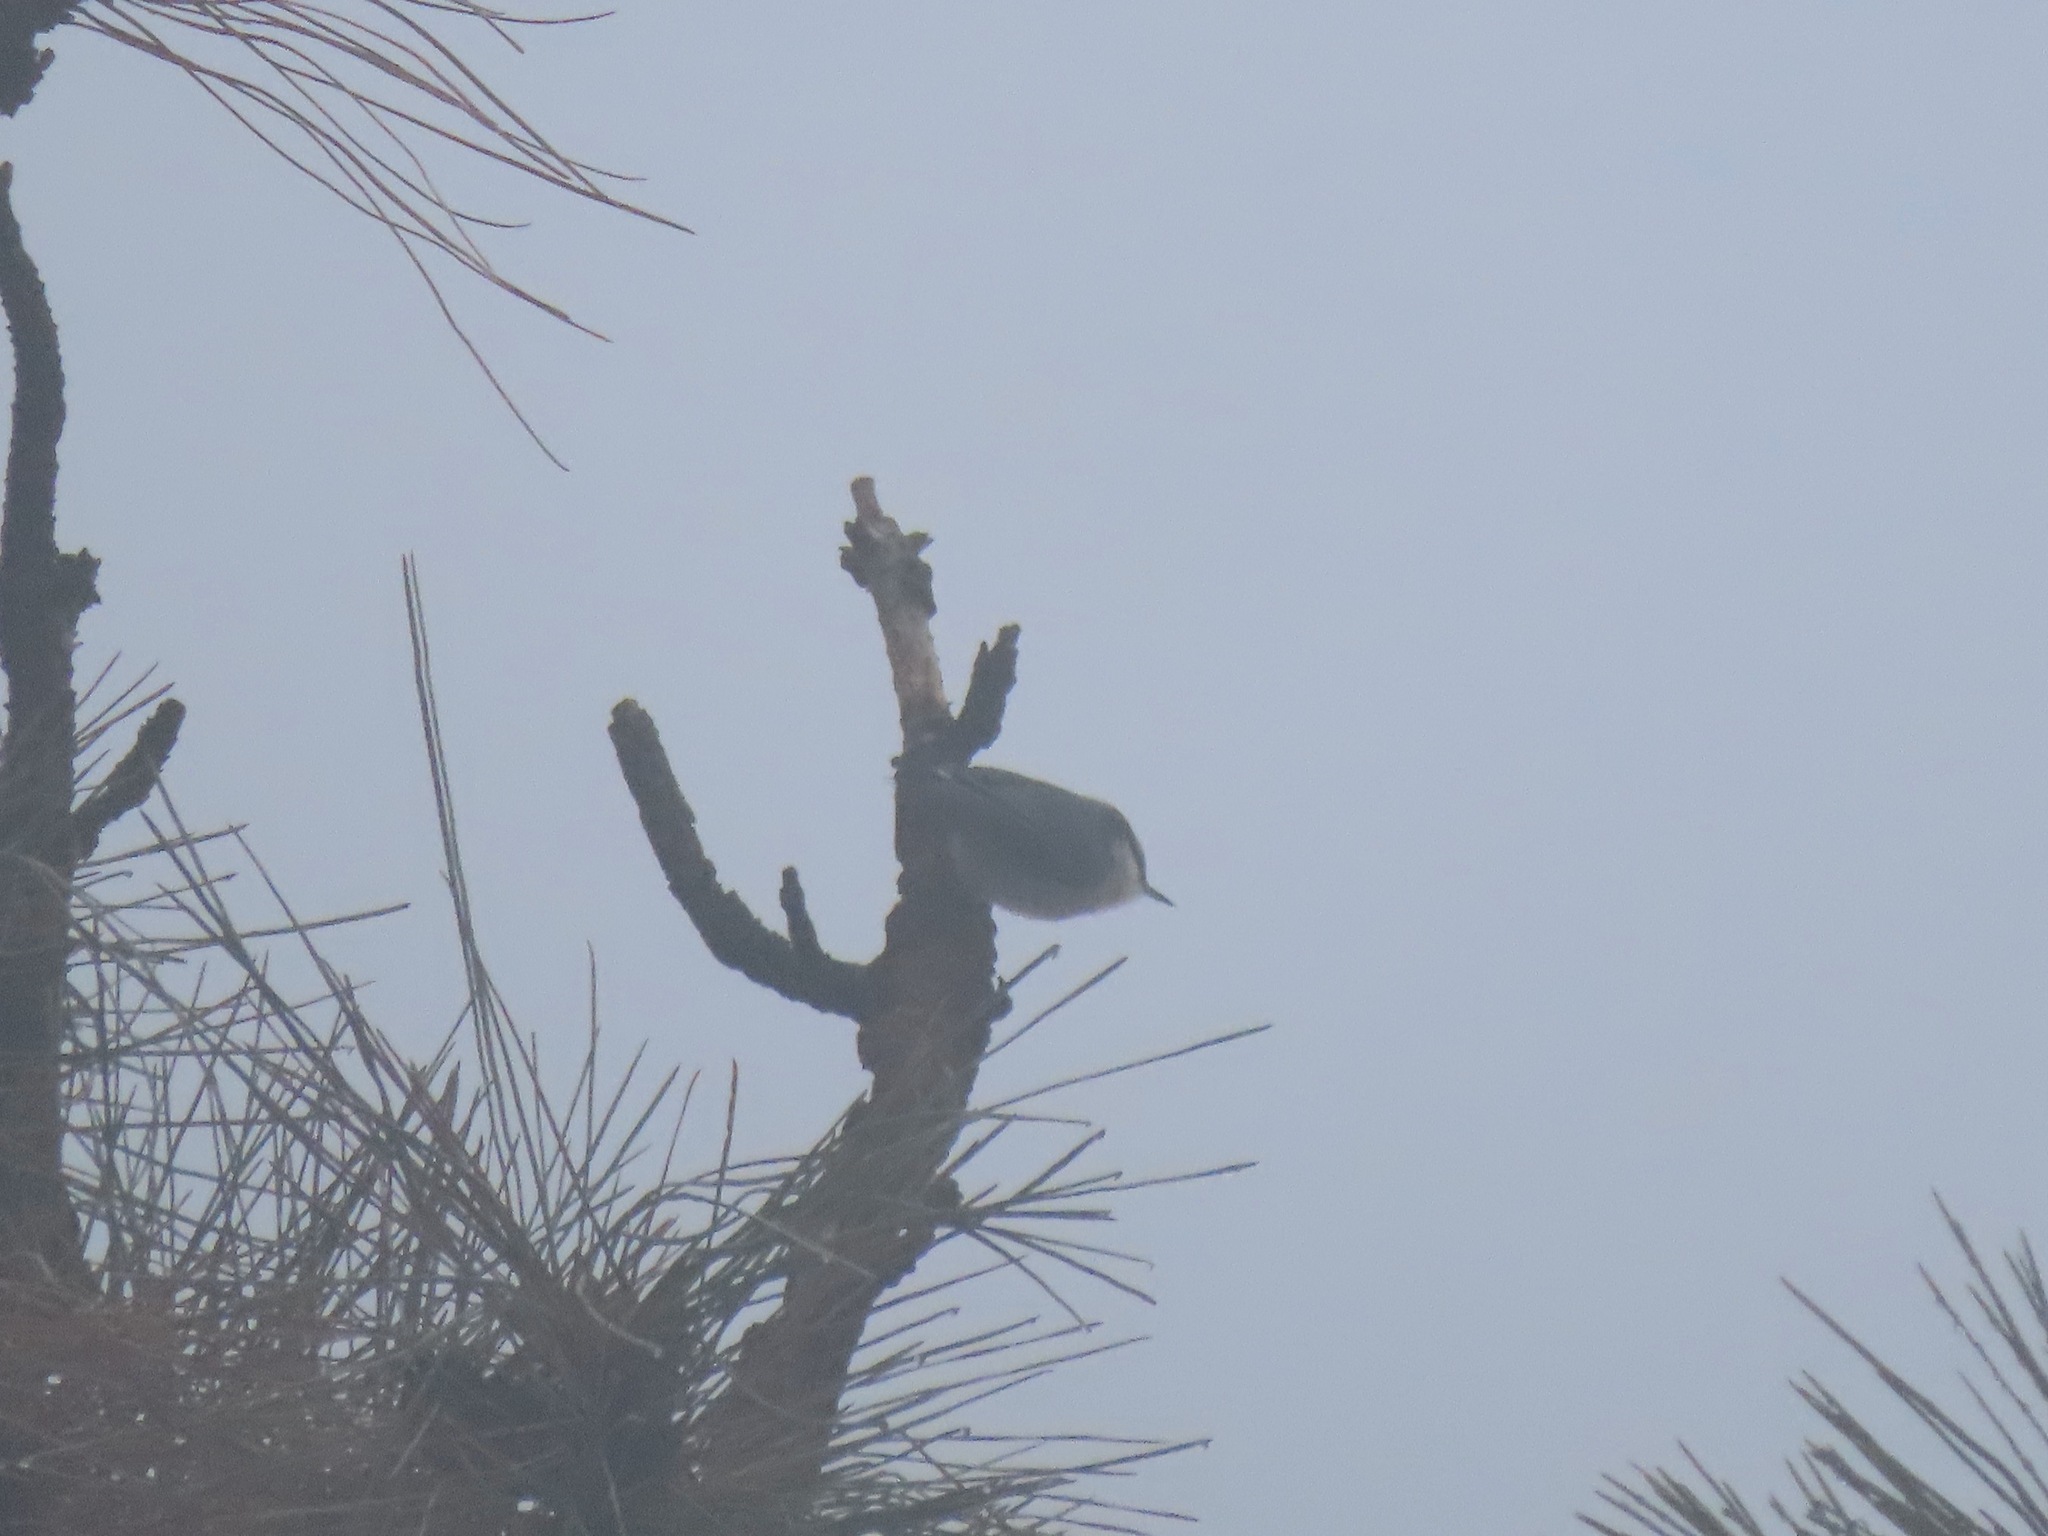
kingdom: Animalia
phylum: Chordata
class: Aves
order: Passeriformes
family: Sittidae
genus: Sitta
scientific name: Sitta pygmaea
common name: Pygmy nuthatch
